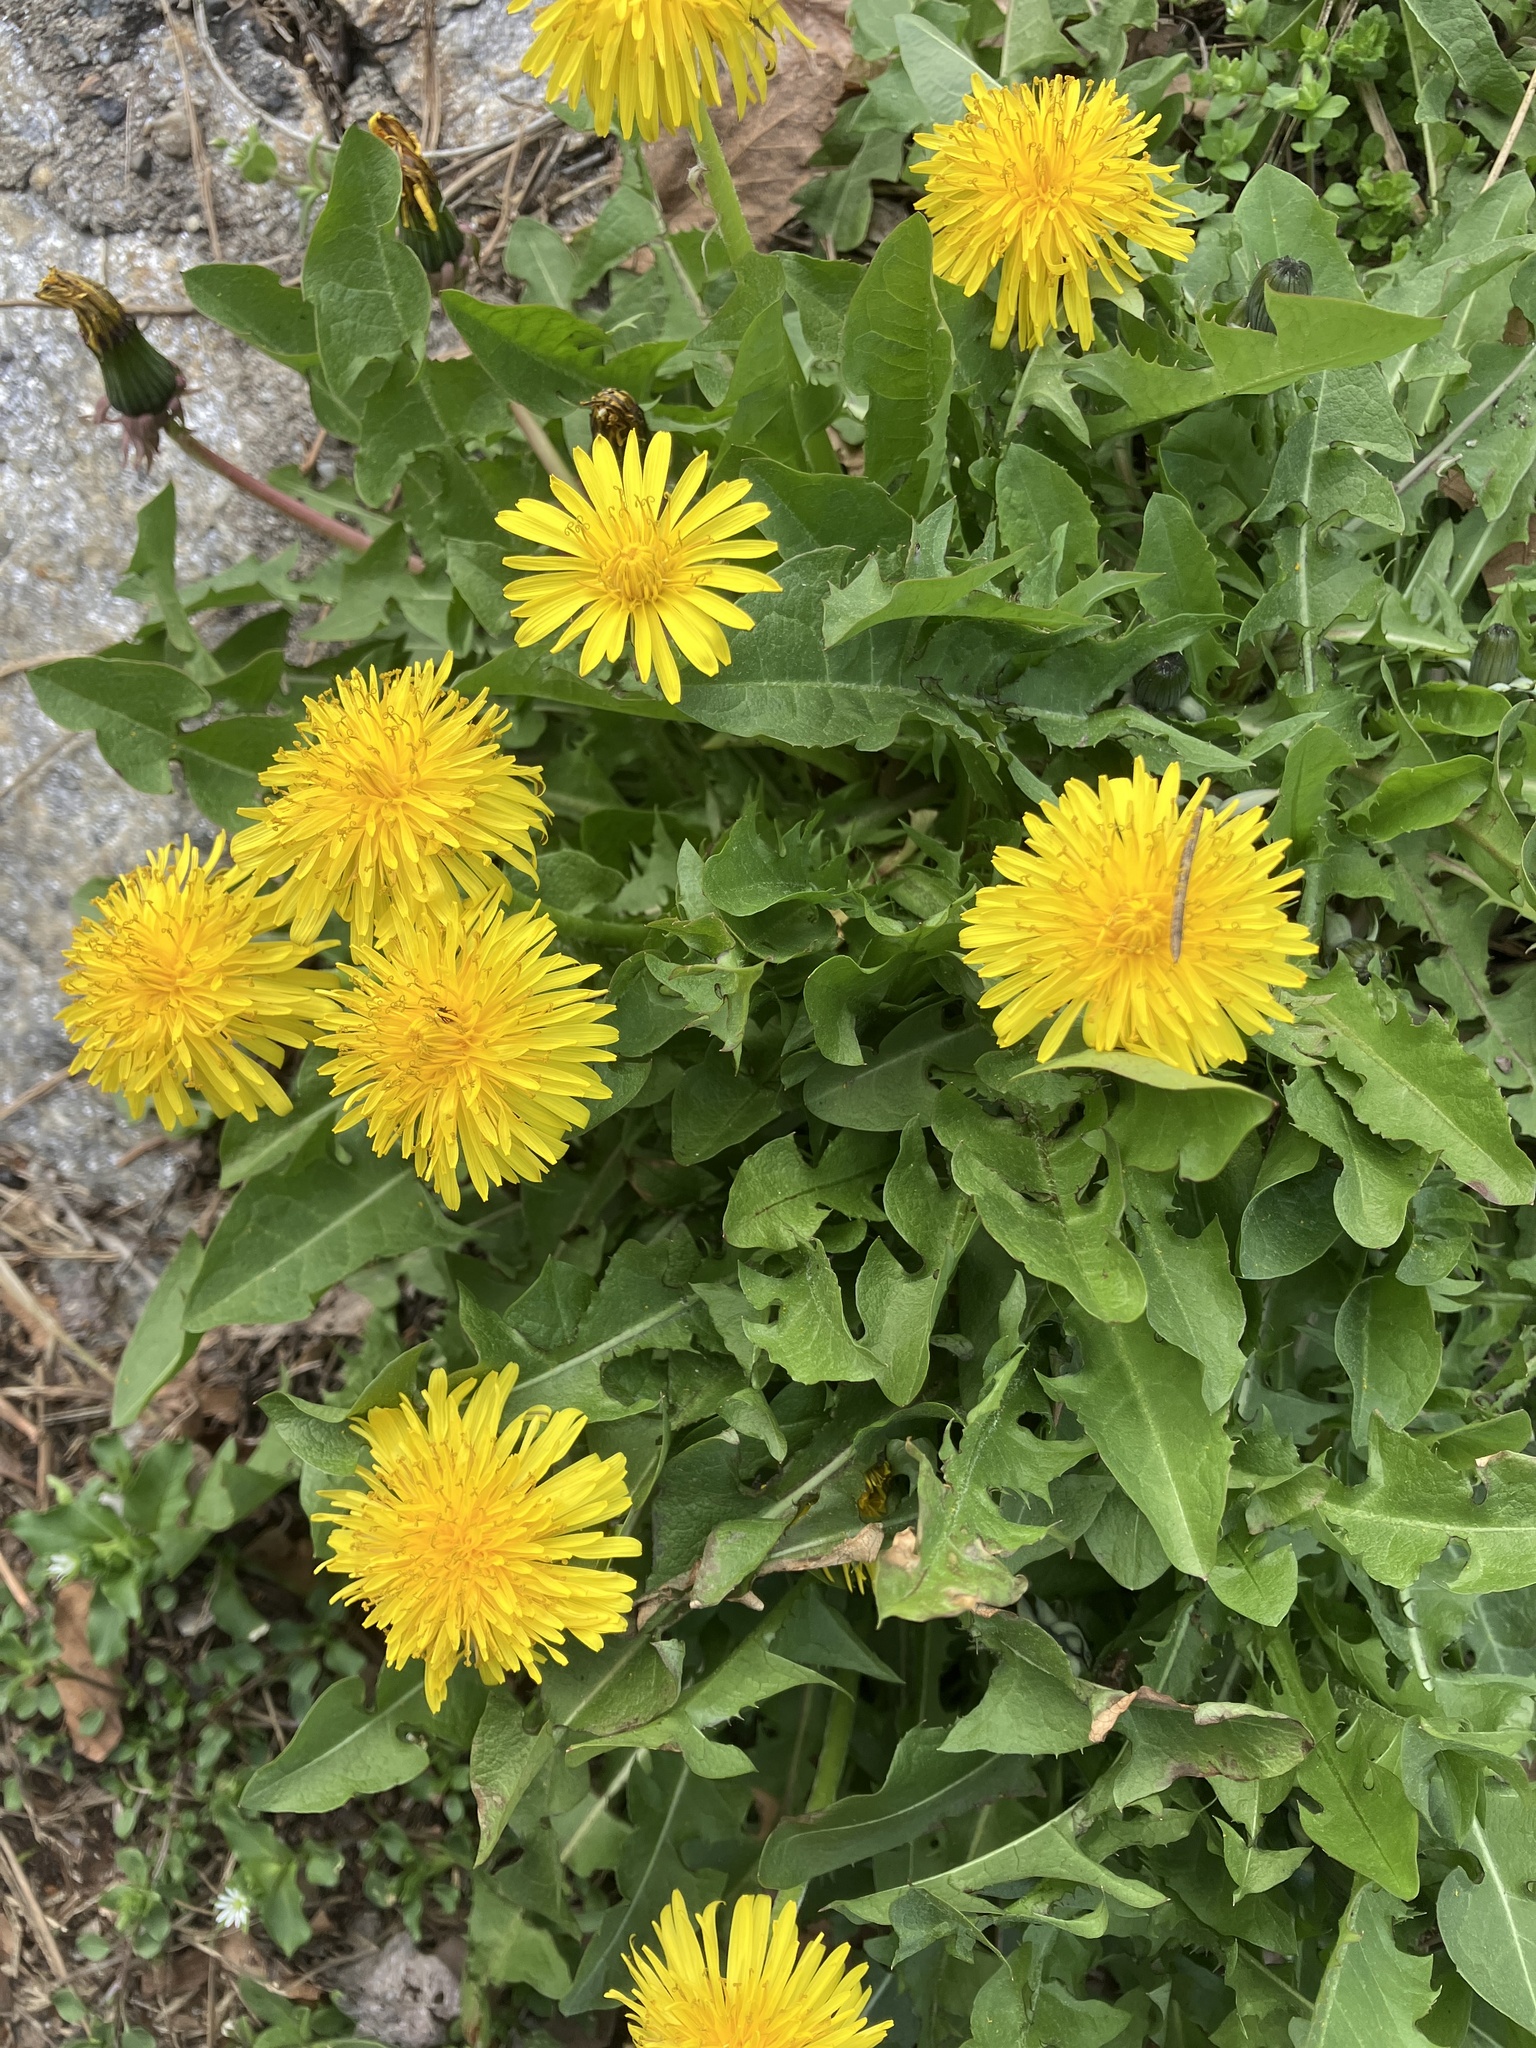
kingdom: Plantae
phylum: Tracheophyta
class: Magnoliopsida
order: Asterales
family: Asteraceae
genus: Taraxacum
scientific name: Taraxacum officinale
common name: Common dandelion
